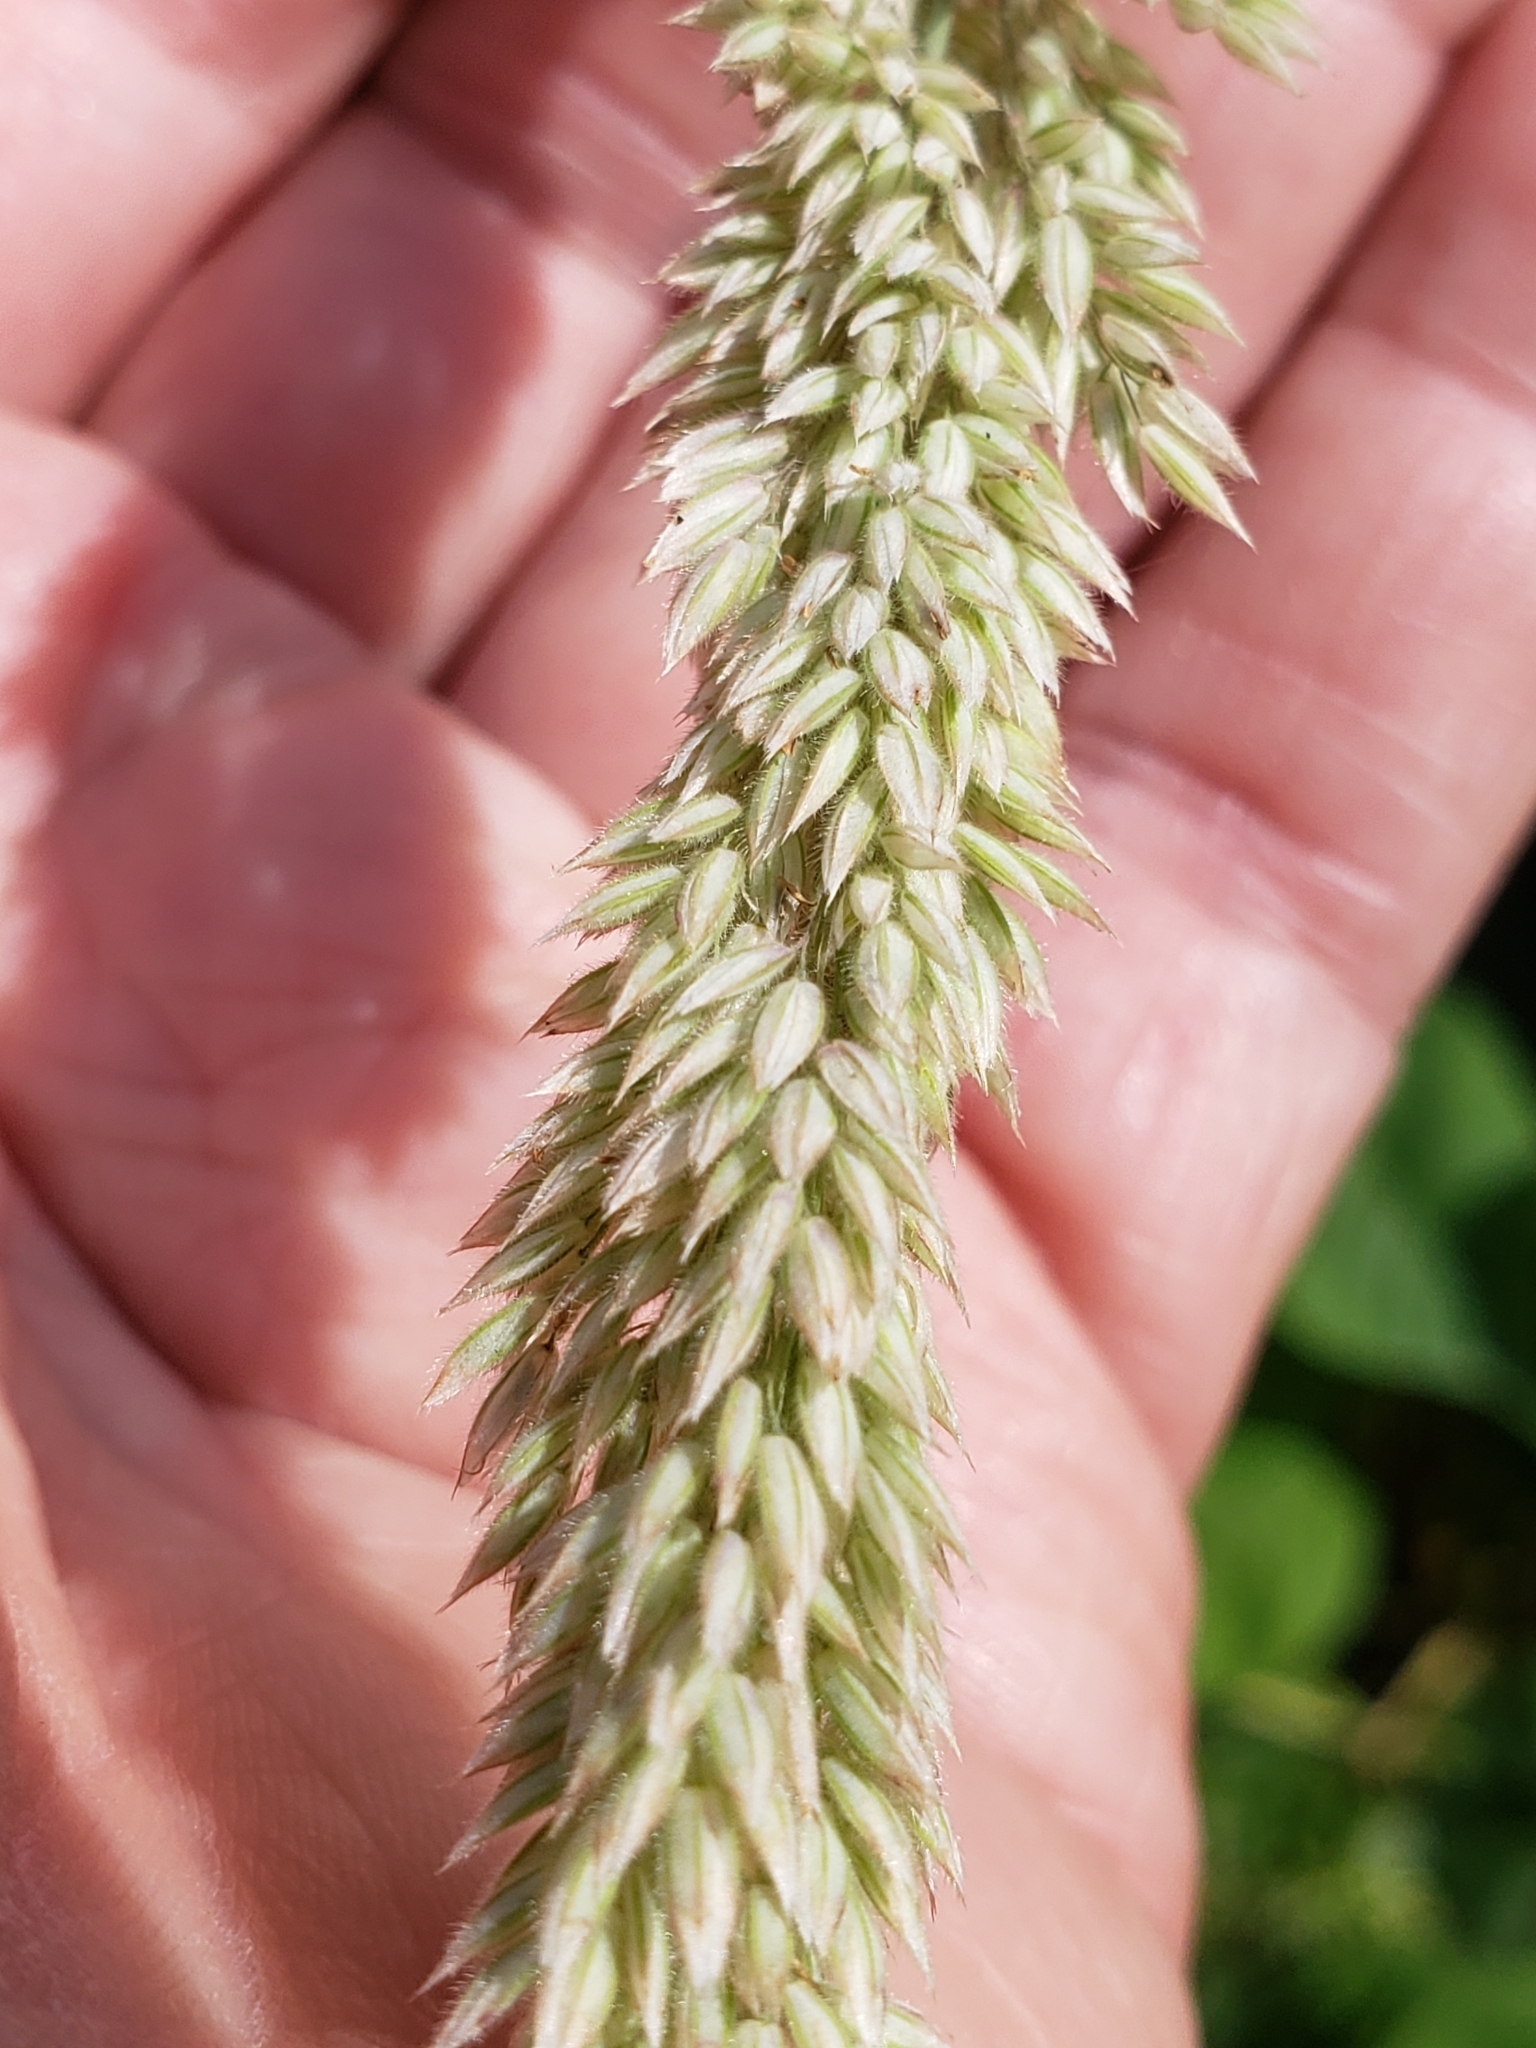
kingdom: Plantae
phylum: Tracheophyta
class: Liliopsida
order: Poales
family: Poaceae
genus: Holcus
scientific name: Holcus lanatus
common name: Yorkshire-fog
